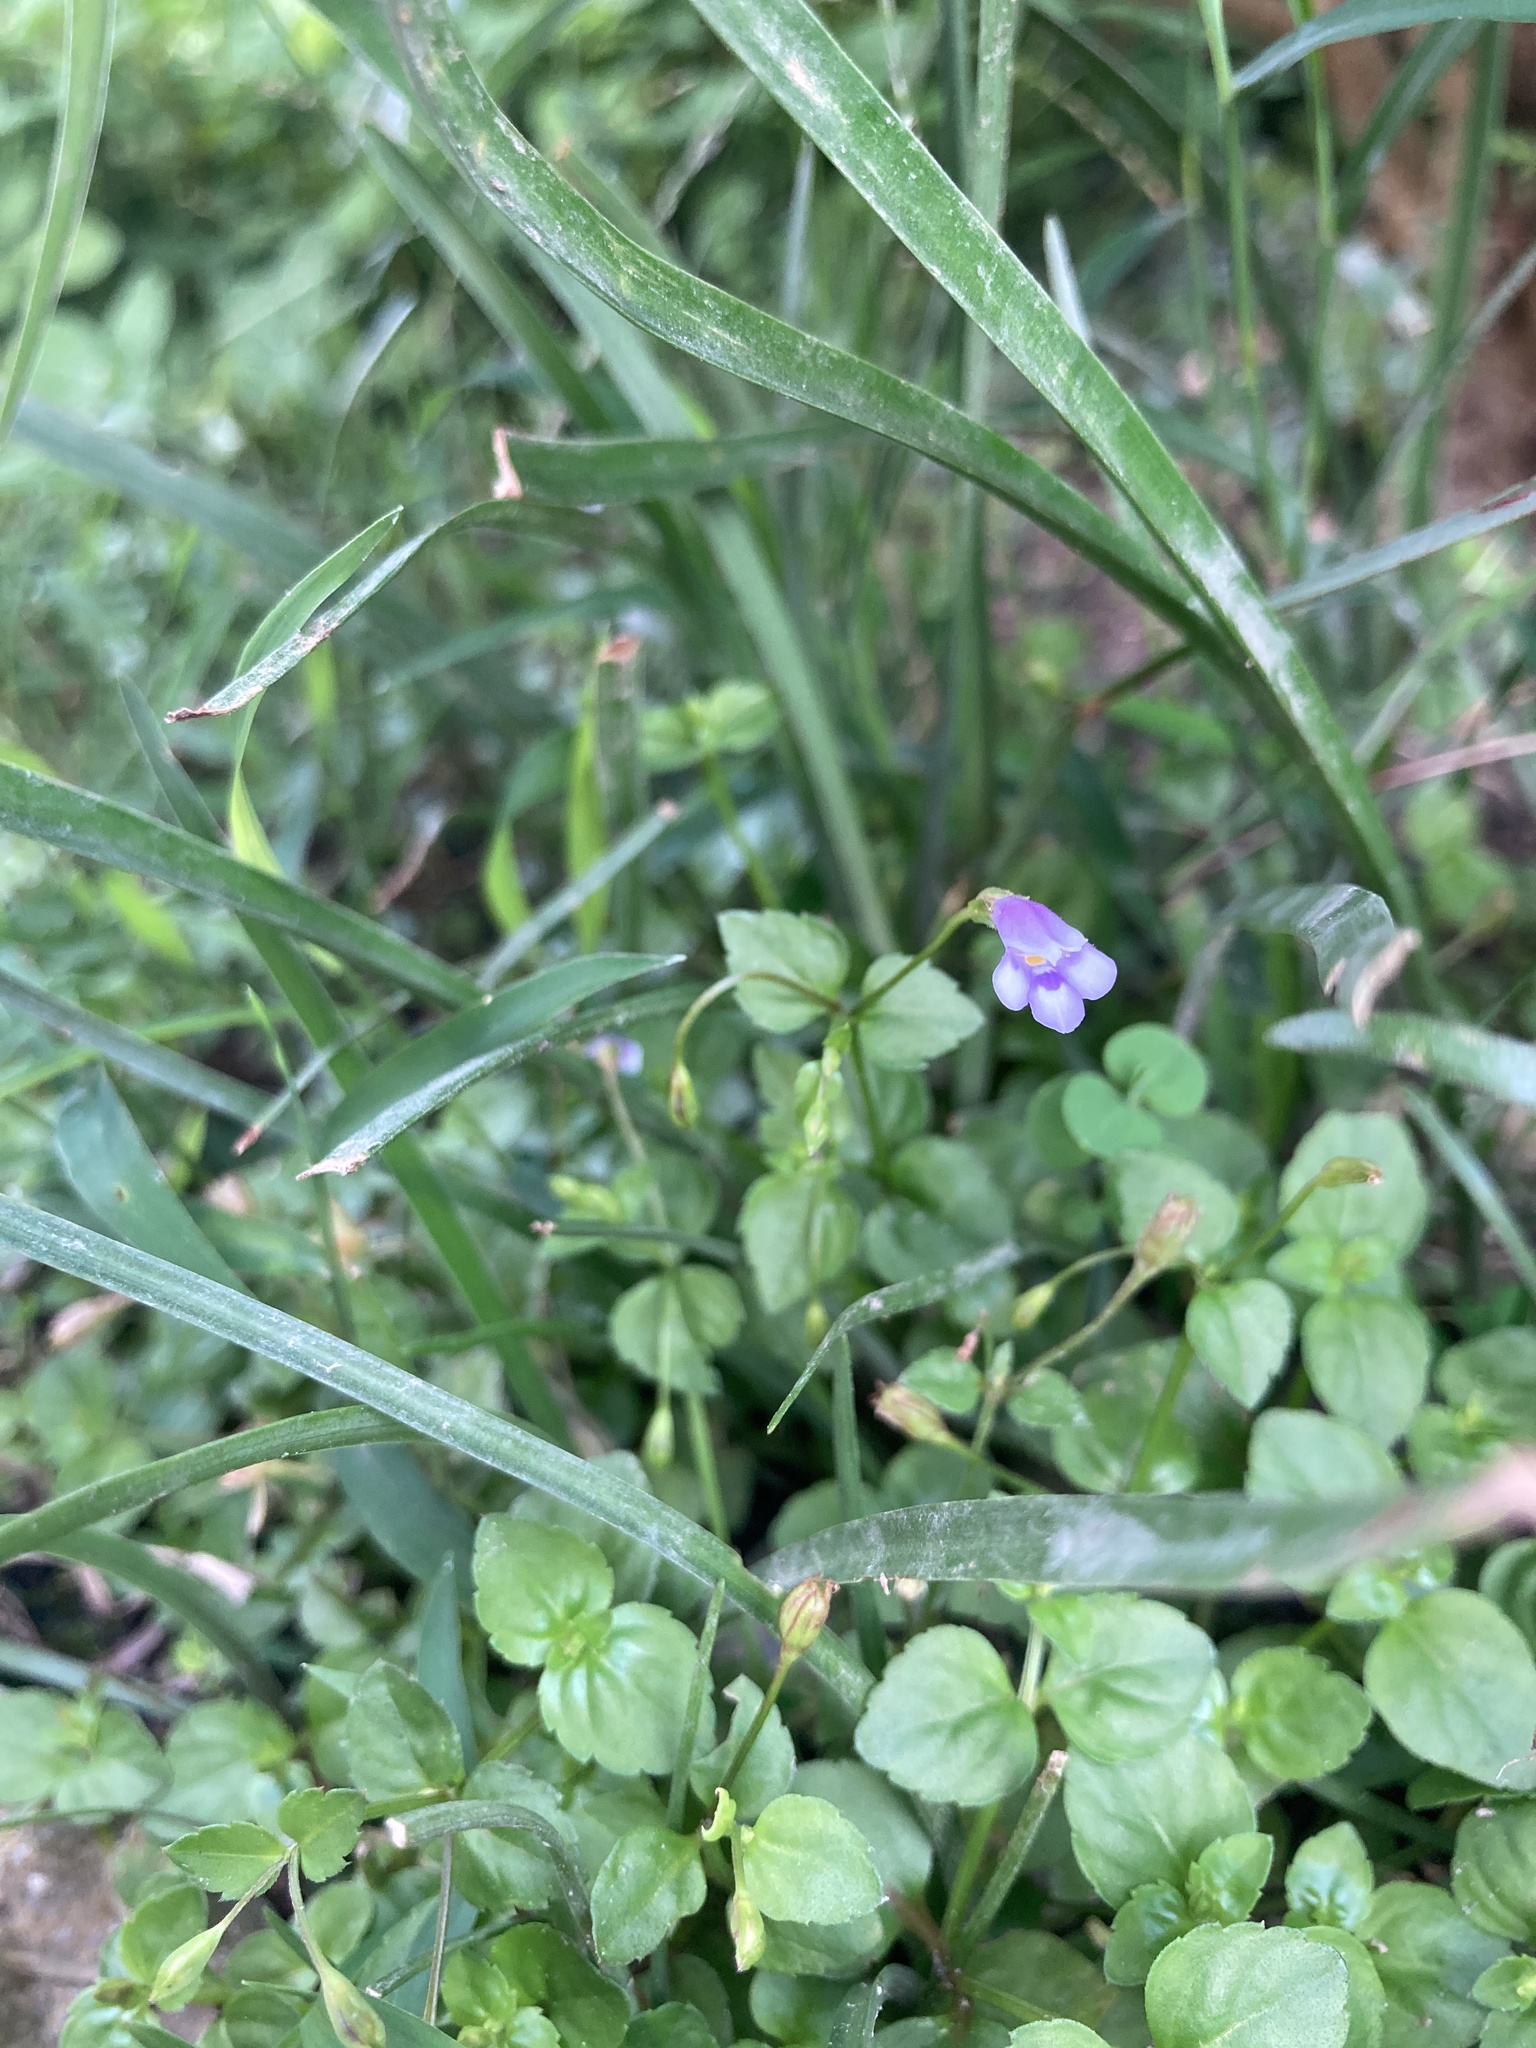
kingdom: Plantae
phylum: Tracheophyta
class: Magnoliopsida
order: Lamiales
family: Linderniaceae
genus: Torenia
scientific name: Torenia crustacea
